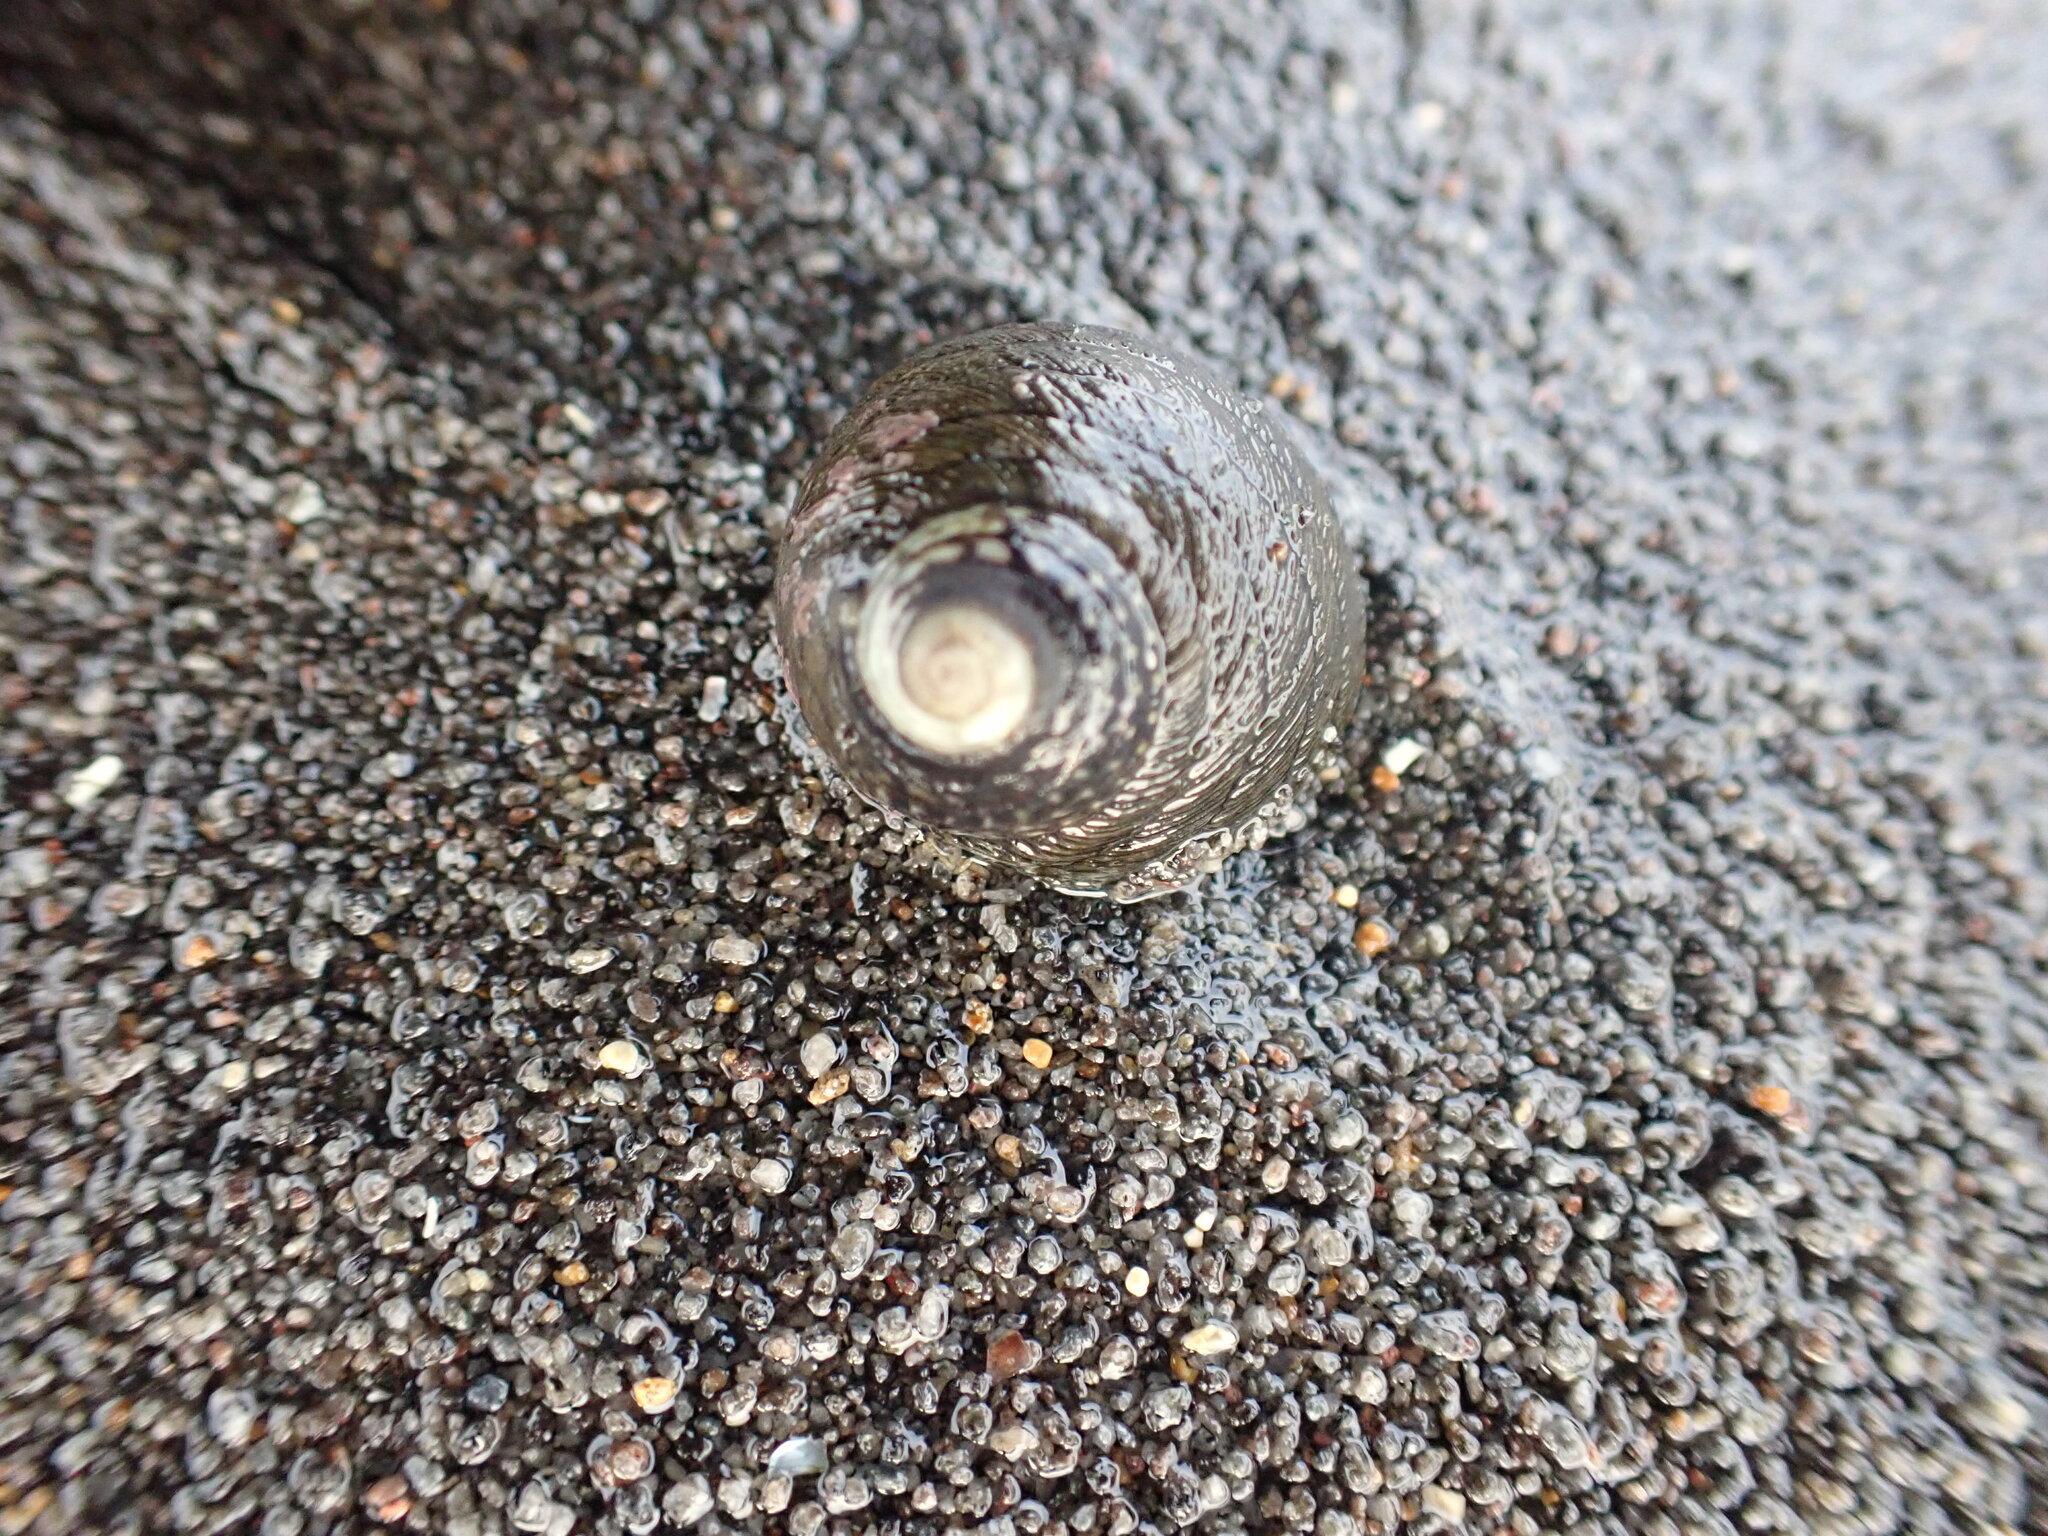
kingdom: Animalia
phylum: Mollusca
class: Gastropoda
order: Trochida
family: Trochidae
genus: Diloma
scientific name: Diloma aethiops
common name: Scorched monodont
